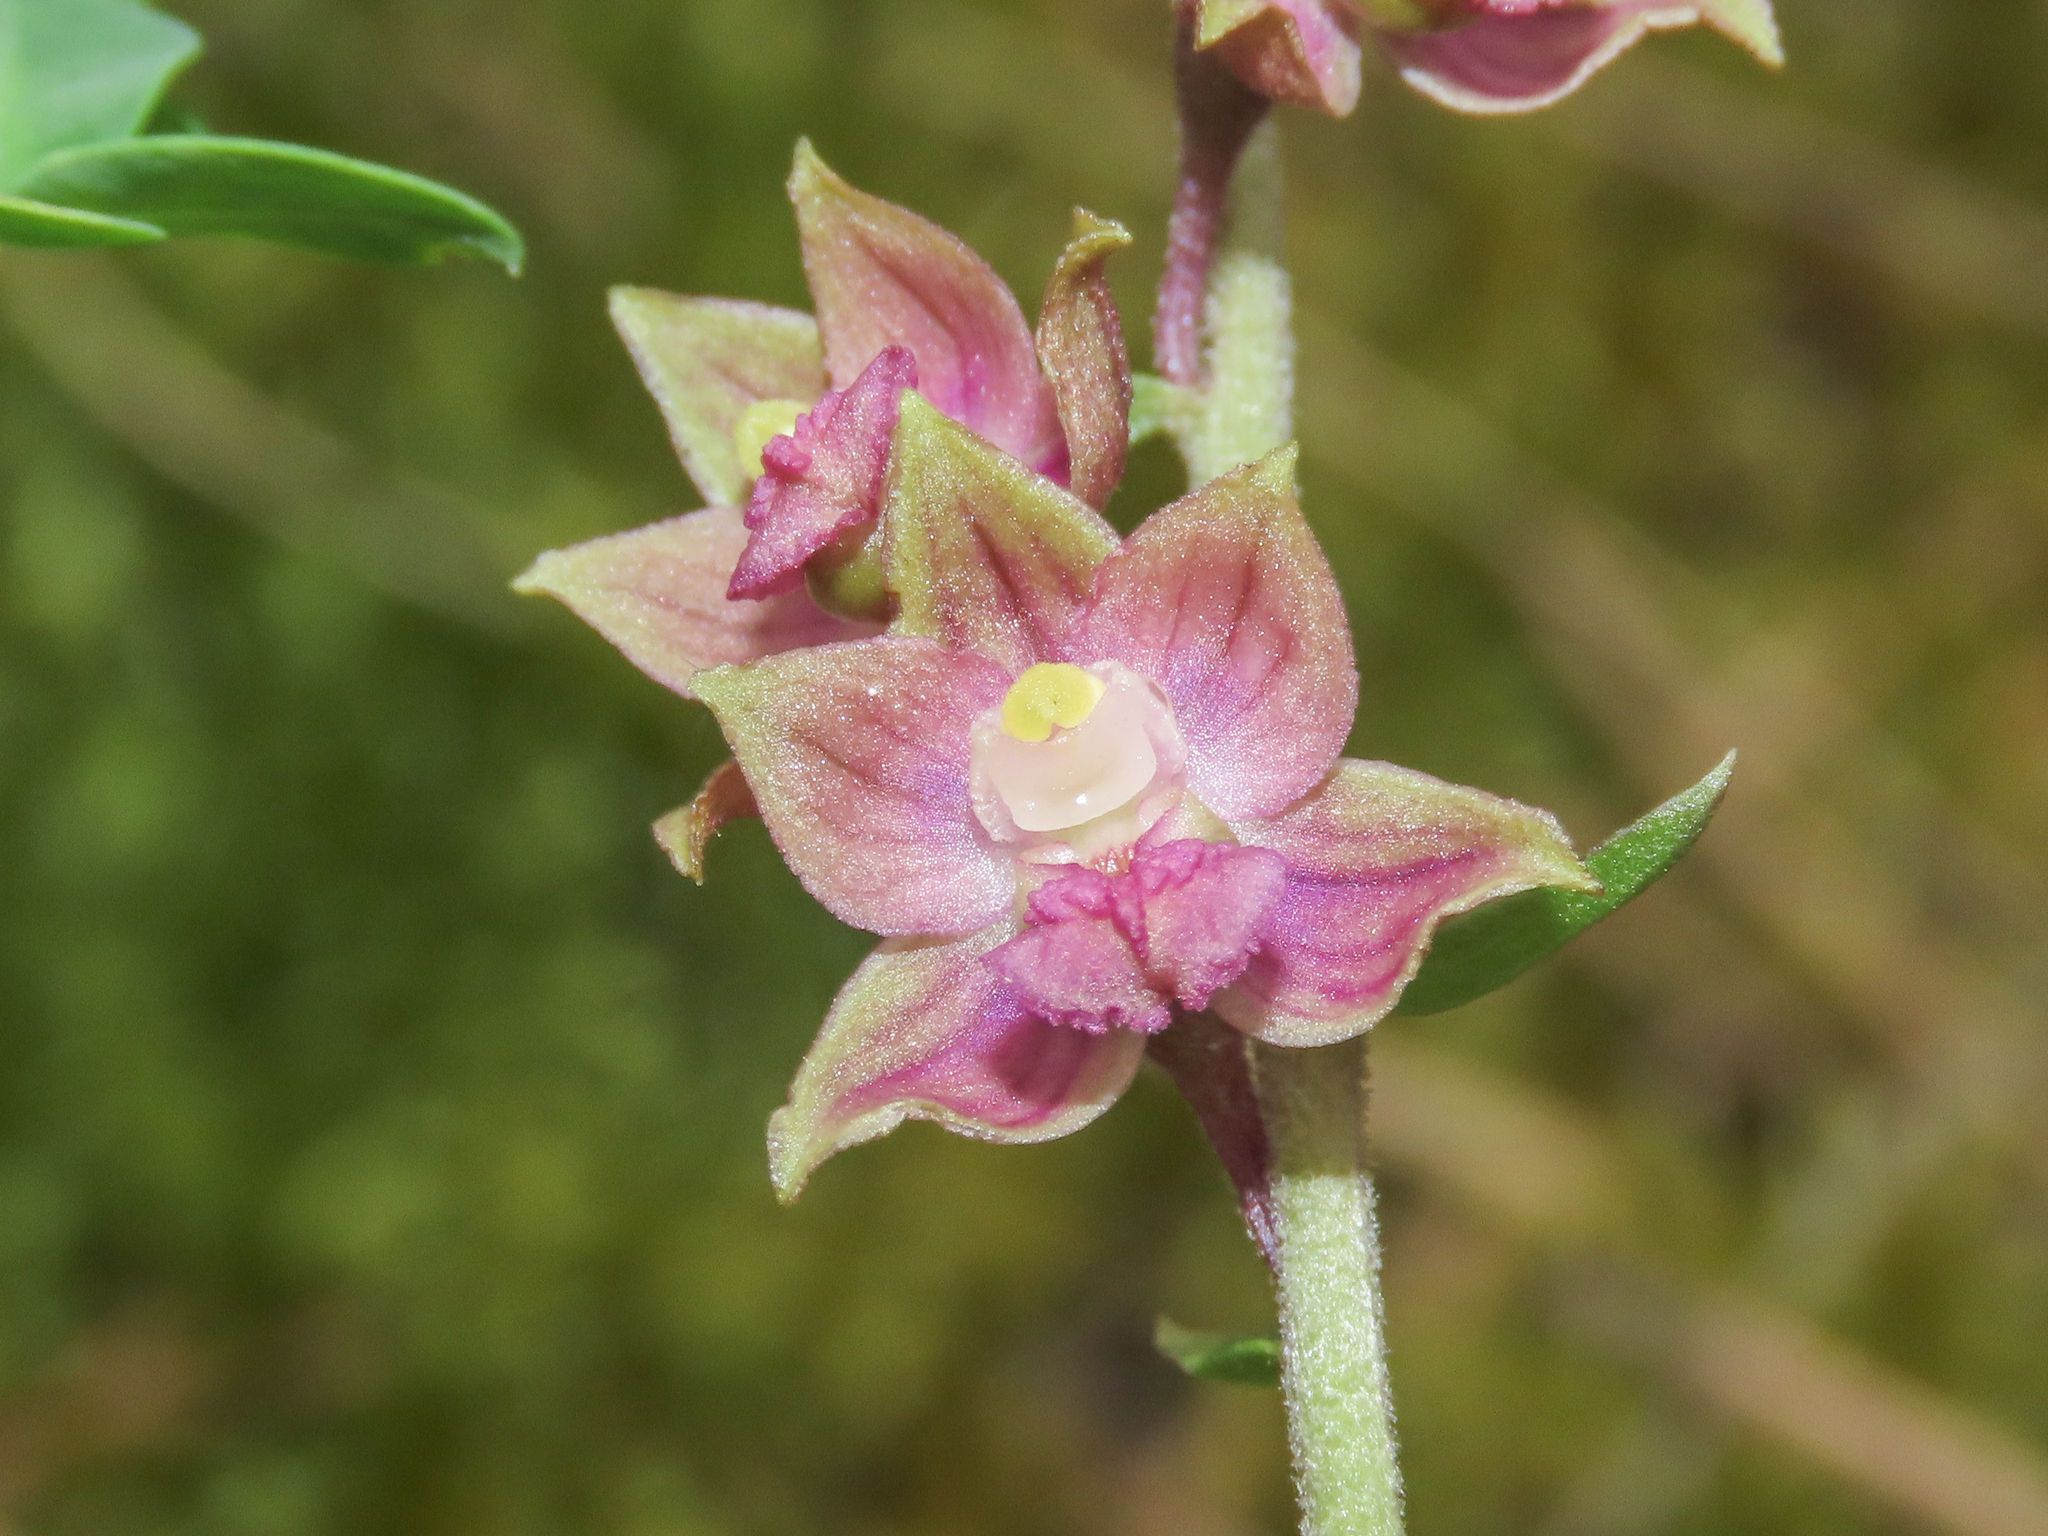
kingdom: Plantae
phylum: Tracheophyta
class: Liliopsida
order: Asparagales
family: Orchidaceae
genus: Epipactis
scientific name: Epipactis atrorubens
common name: Dark-red helleborine
